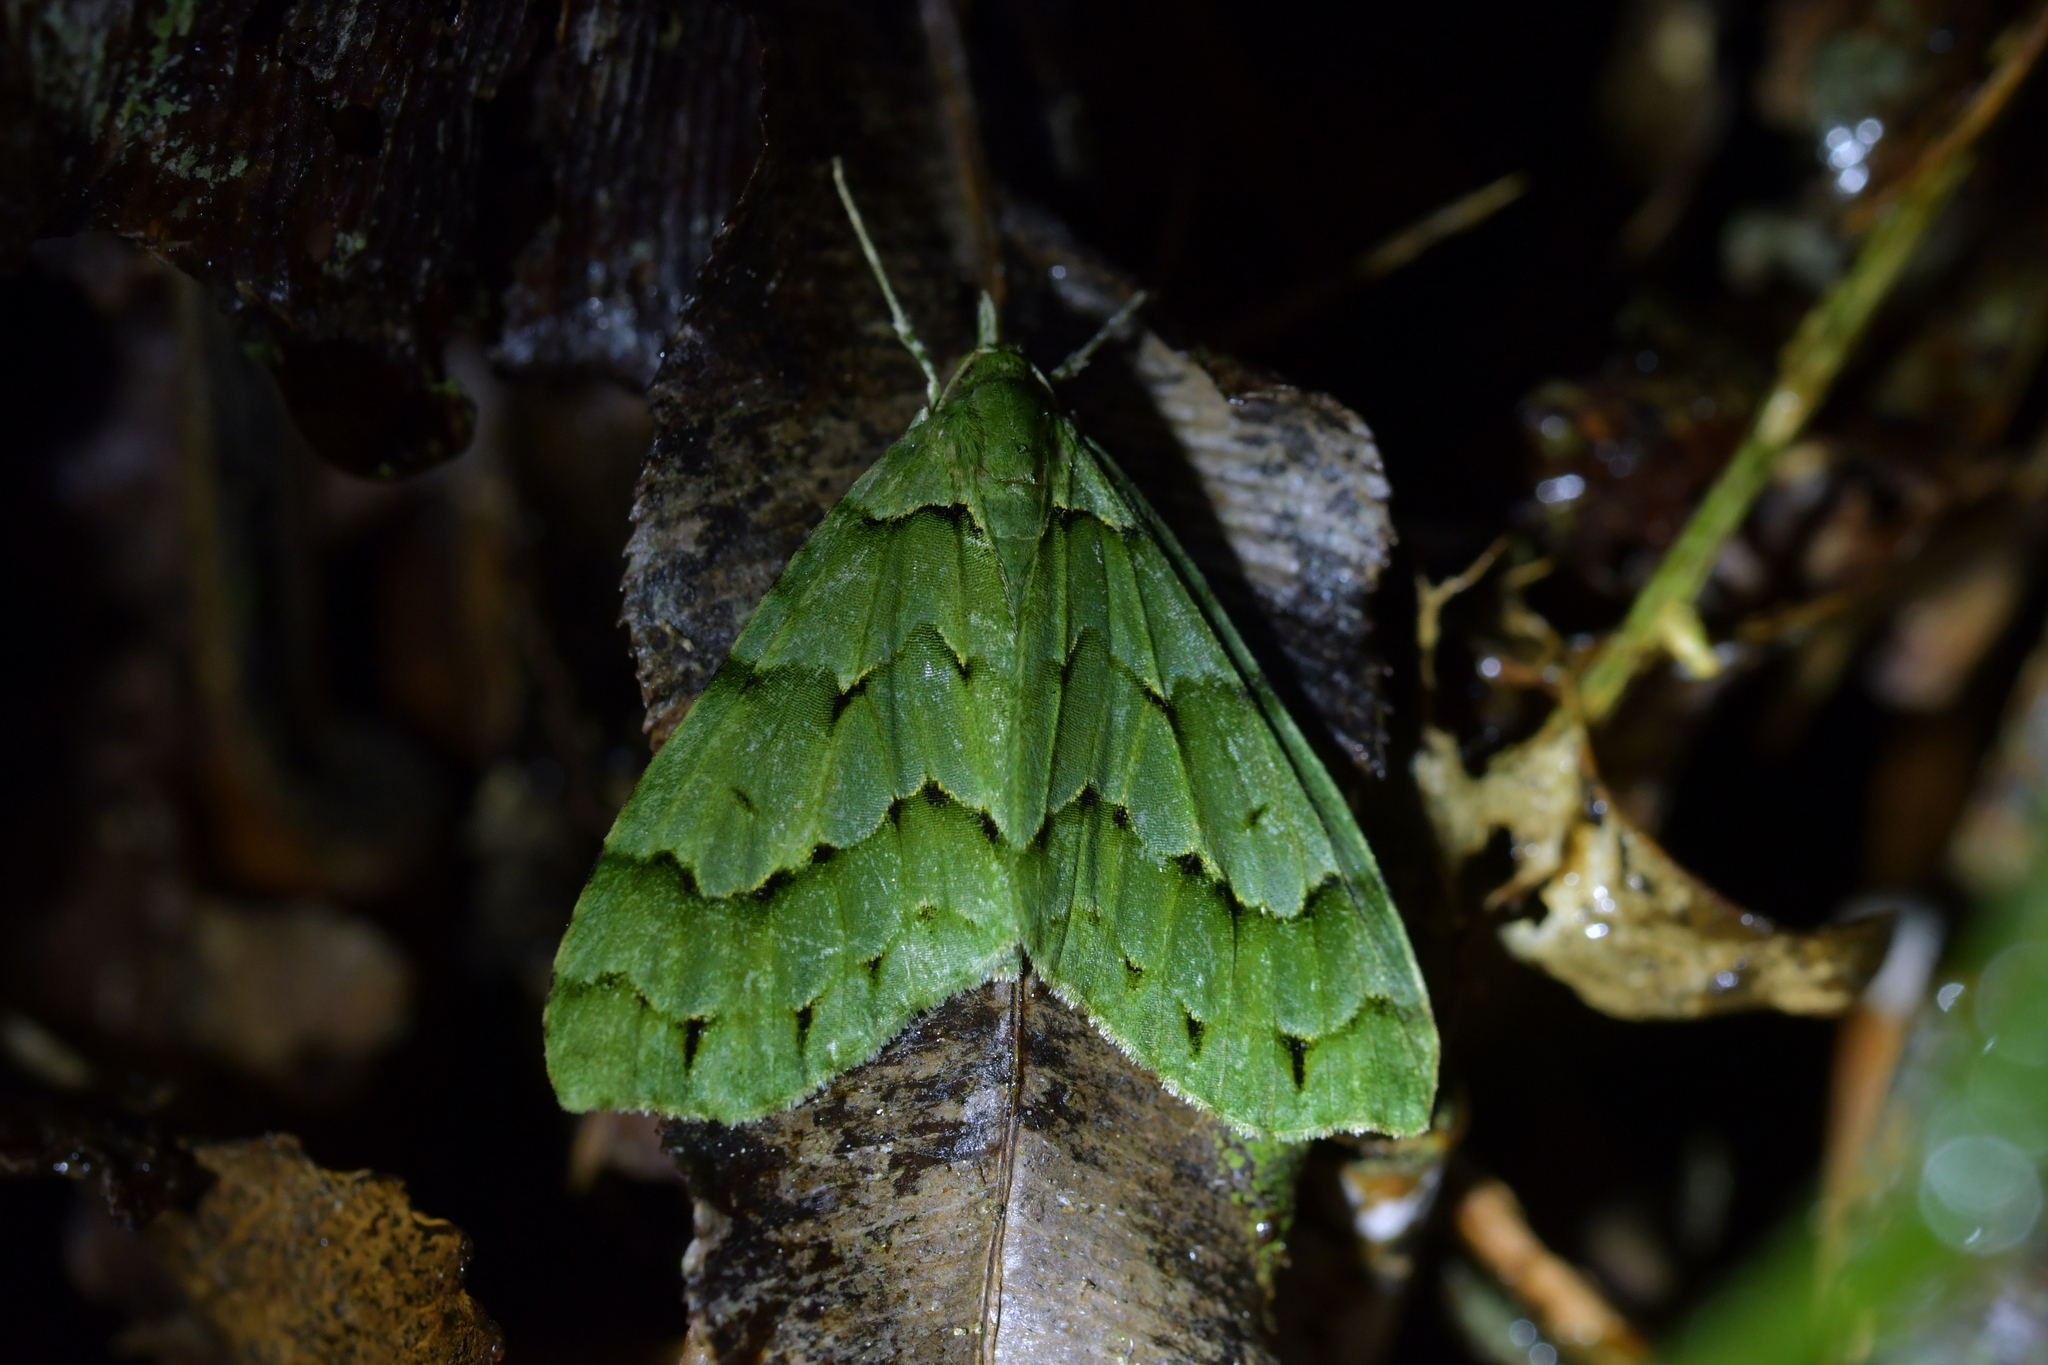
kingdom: Animalia
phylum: Arthropoda
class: Insecta
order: Lepidoptera
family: Geometridae
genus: Tatosoma
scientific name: Tatosoma lestevata
